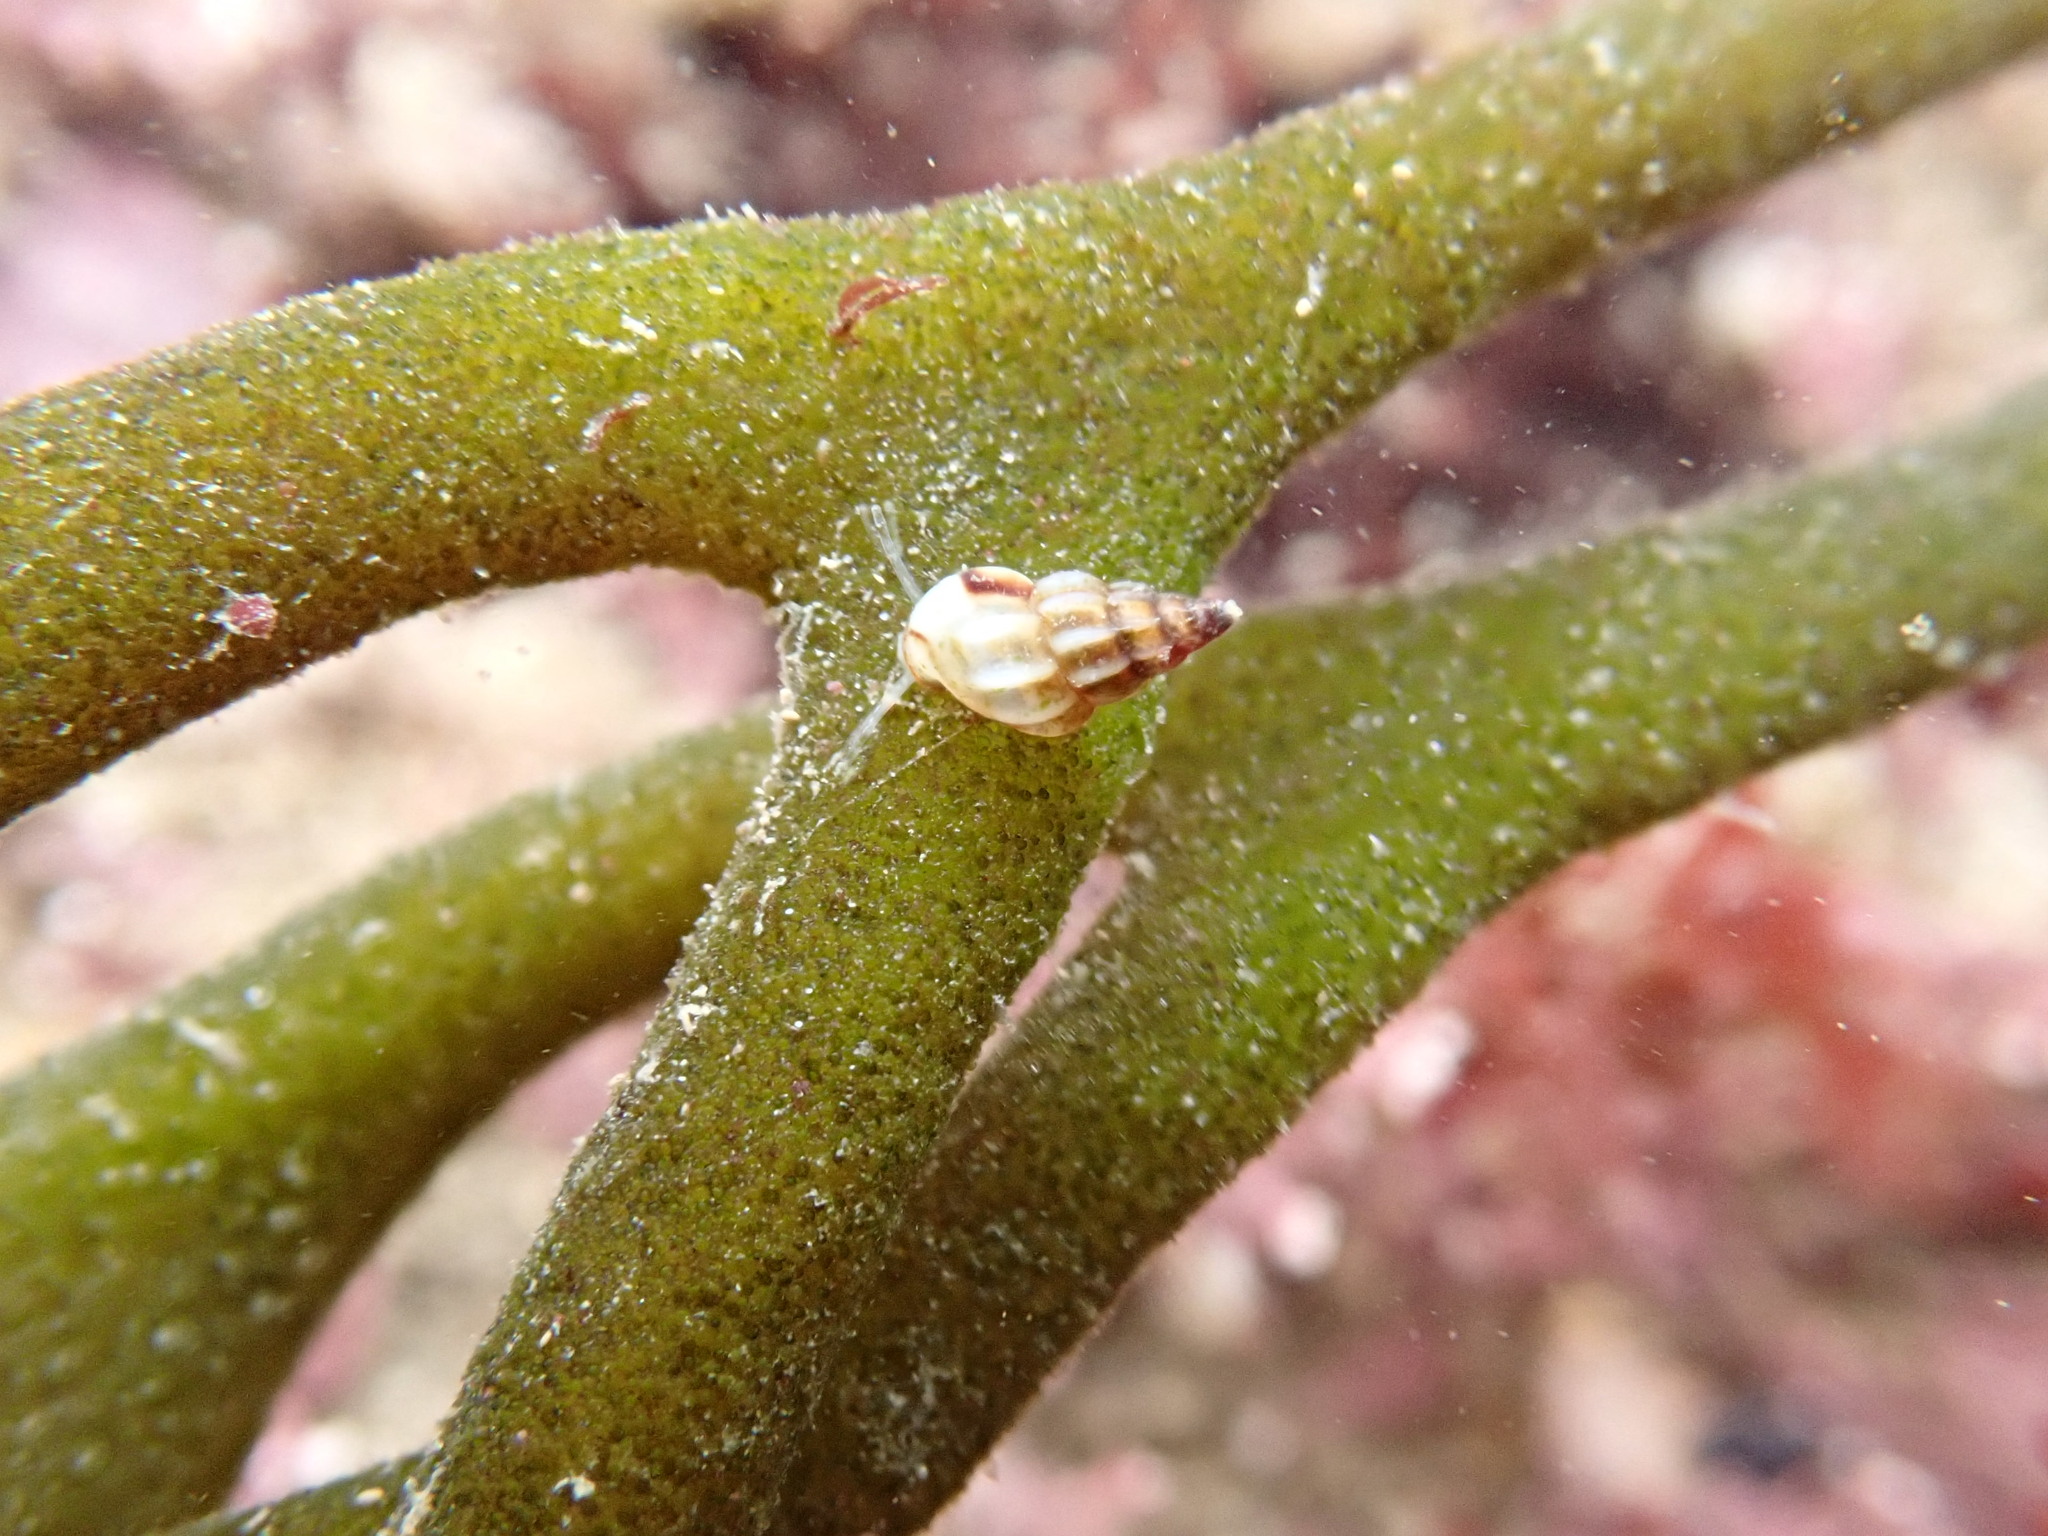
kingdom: Animalia
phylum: Mollusca
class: Gastropoda
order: Littorinimorpha
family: Rissoidae
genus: Rissoa
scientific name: Rissoa parva
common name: Tiny risso snail
